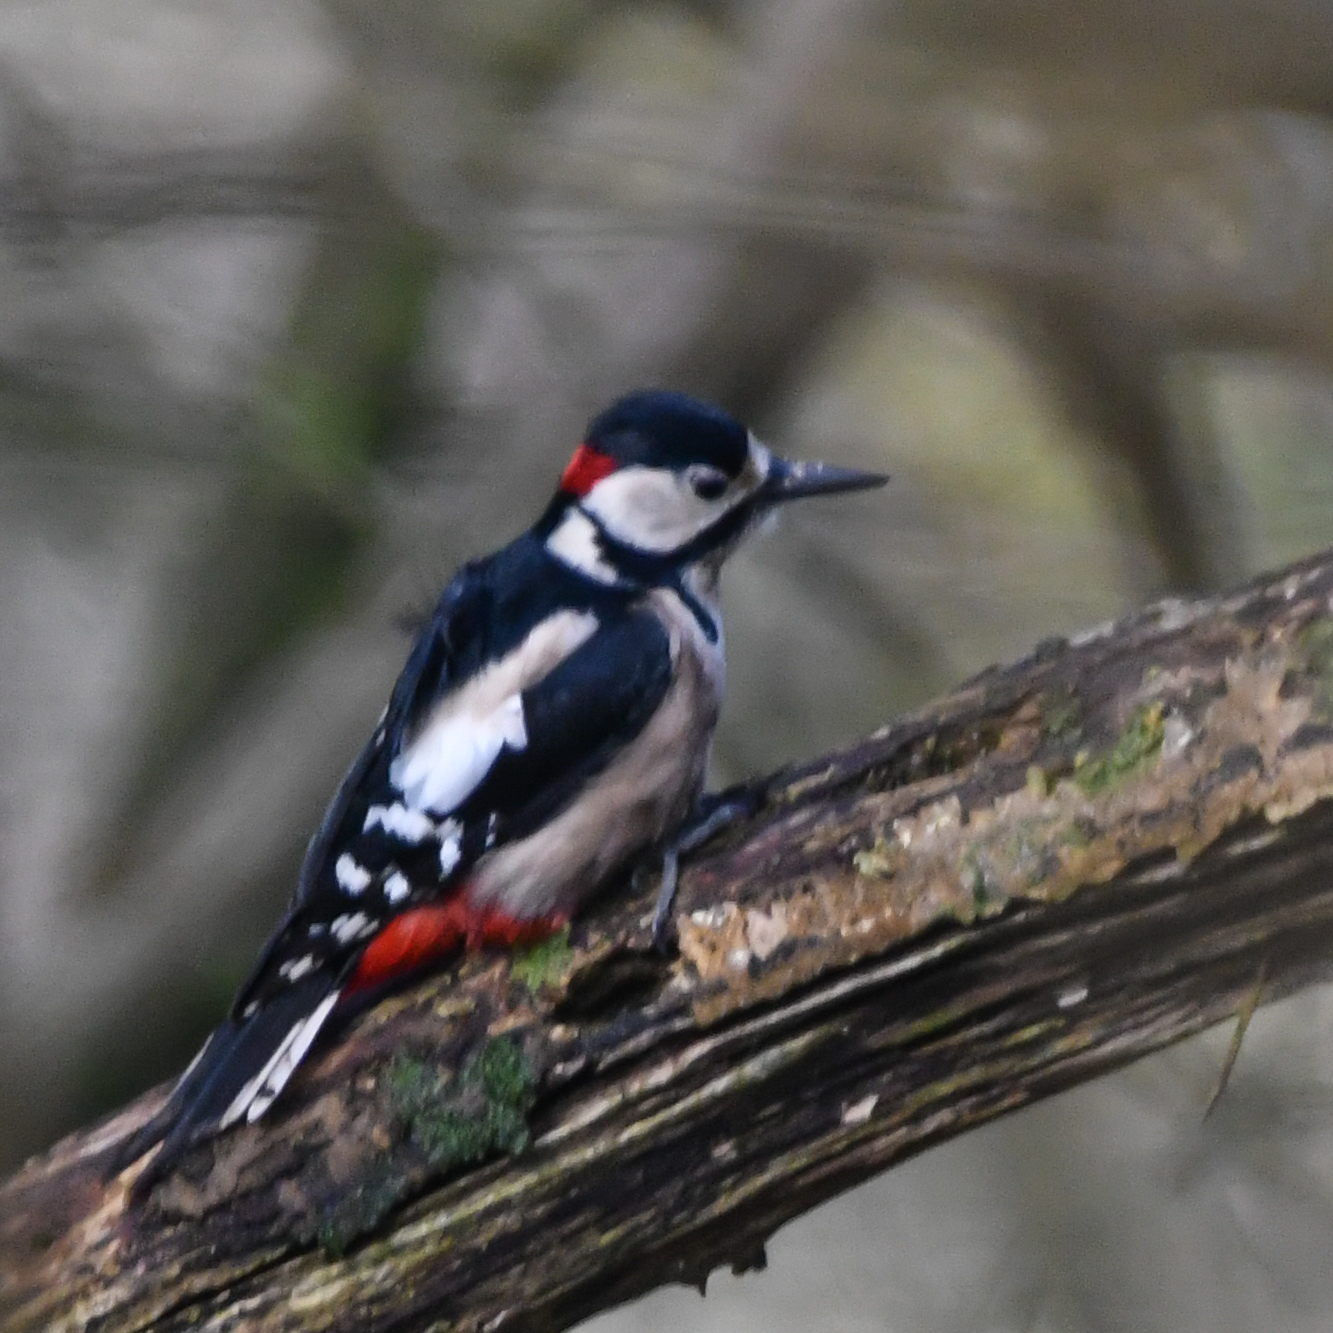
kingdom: Animalia
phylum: Chordata
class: Aves
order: Piciformes
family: Picidae
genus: Dendrocopos
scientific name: Dendrocopos major
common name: Great spotted woodpecker
